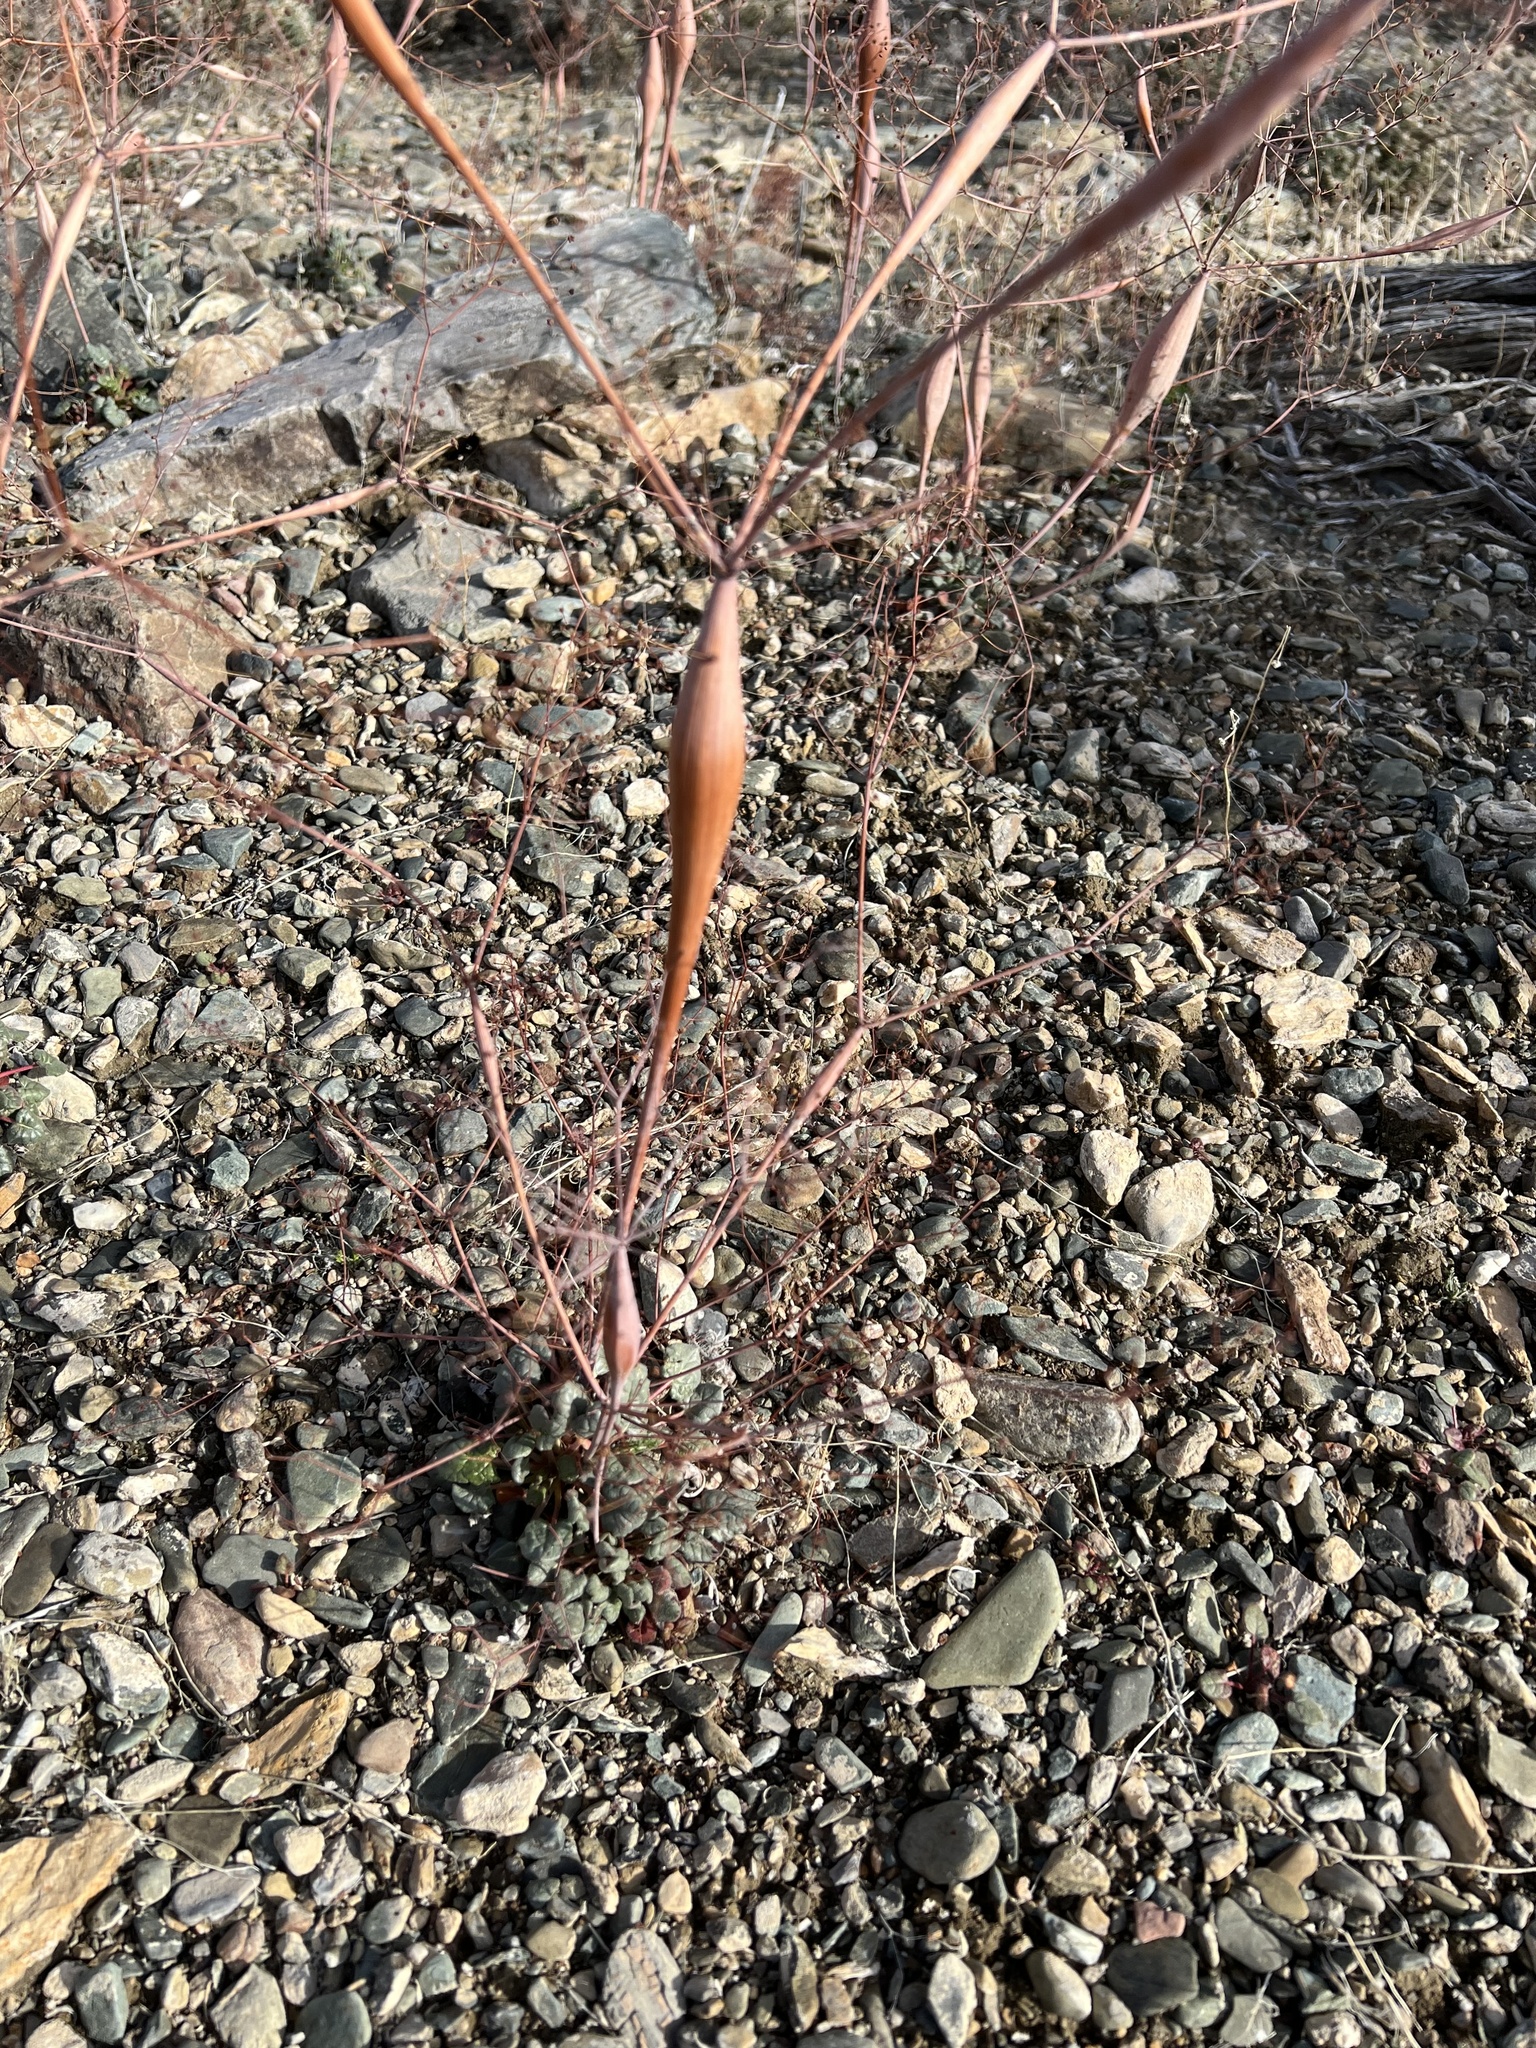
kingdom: Plantae
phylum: Tracheophyta
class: Magnoliopsida
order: Caryophyllales
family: Polygonaceae
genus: Eriogonum
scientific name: Eriogonum inflatum
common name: Desert trumpet
